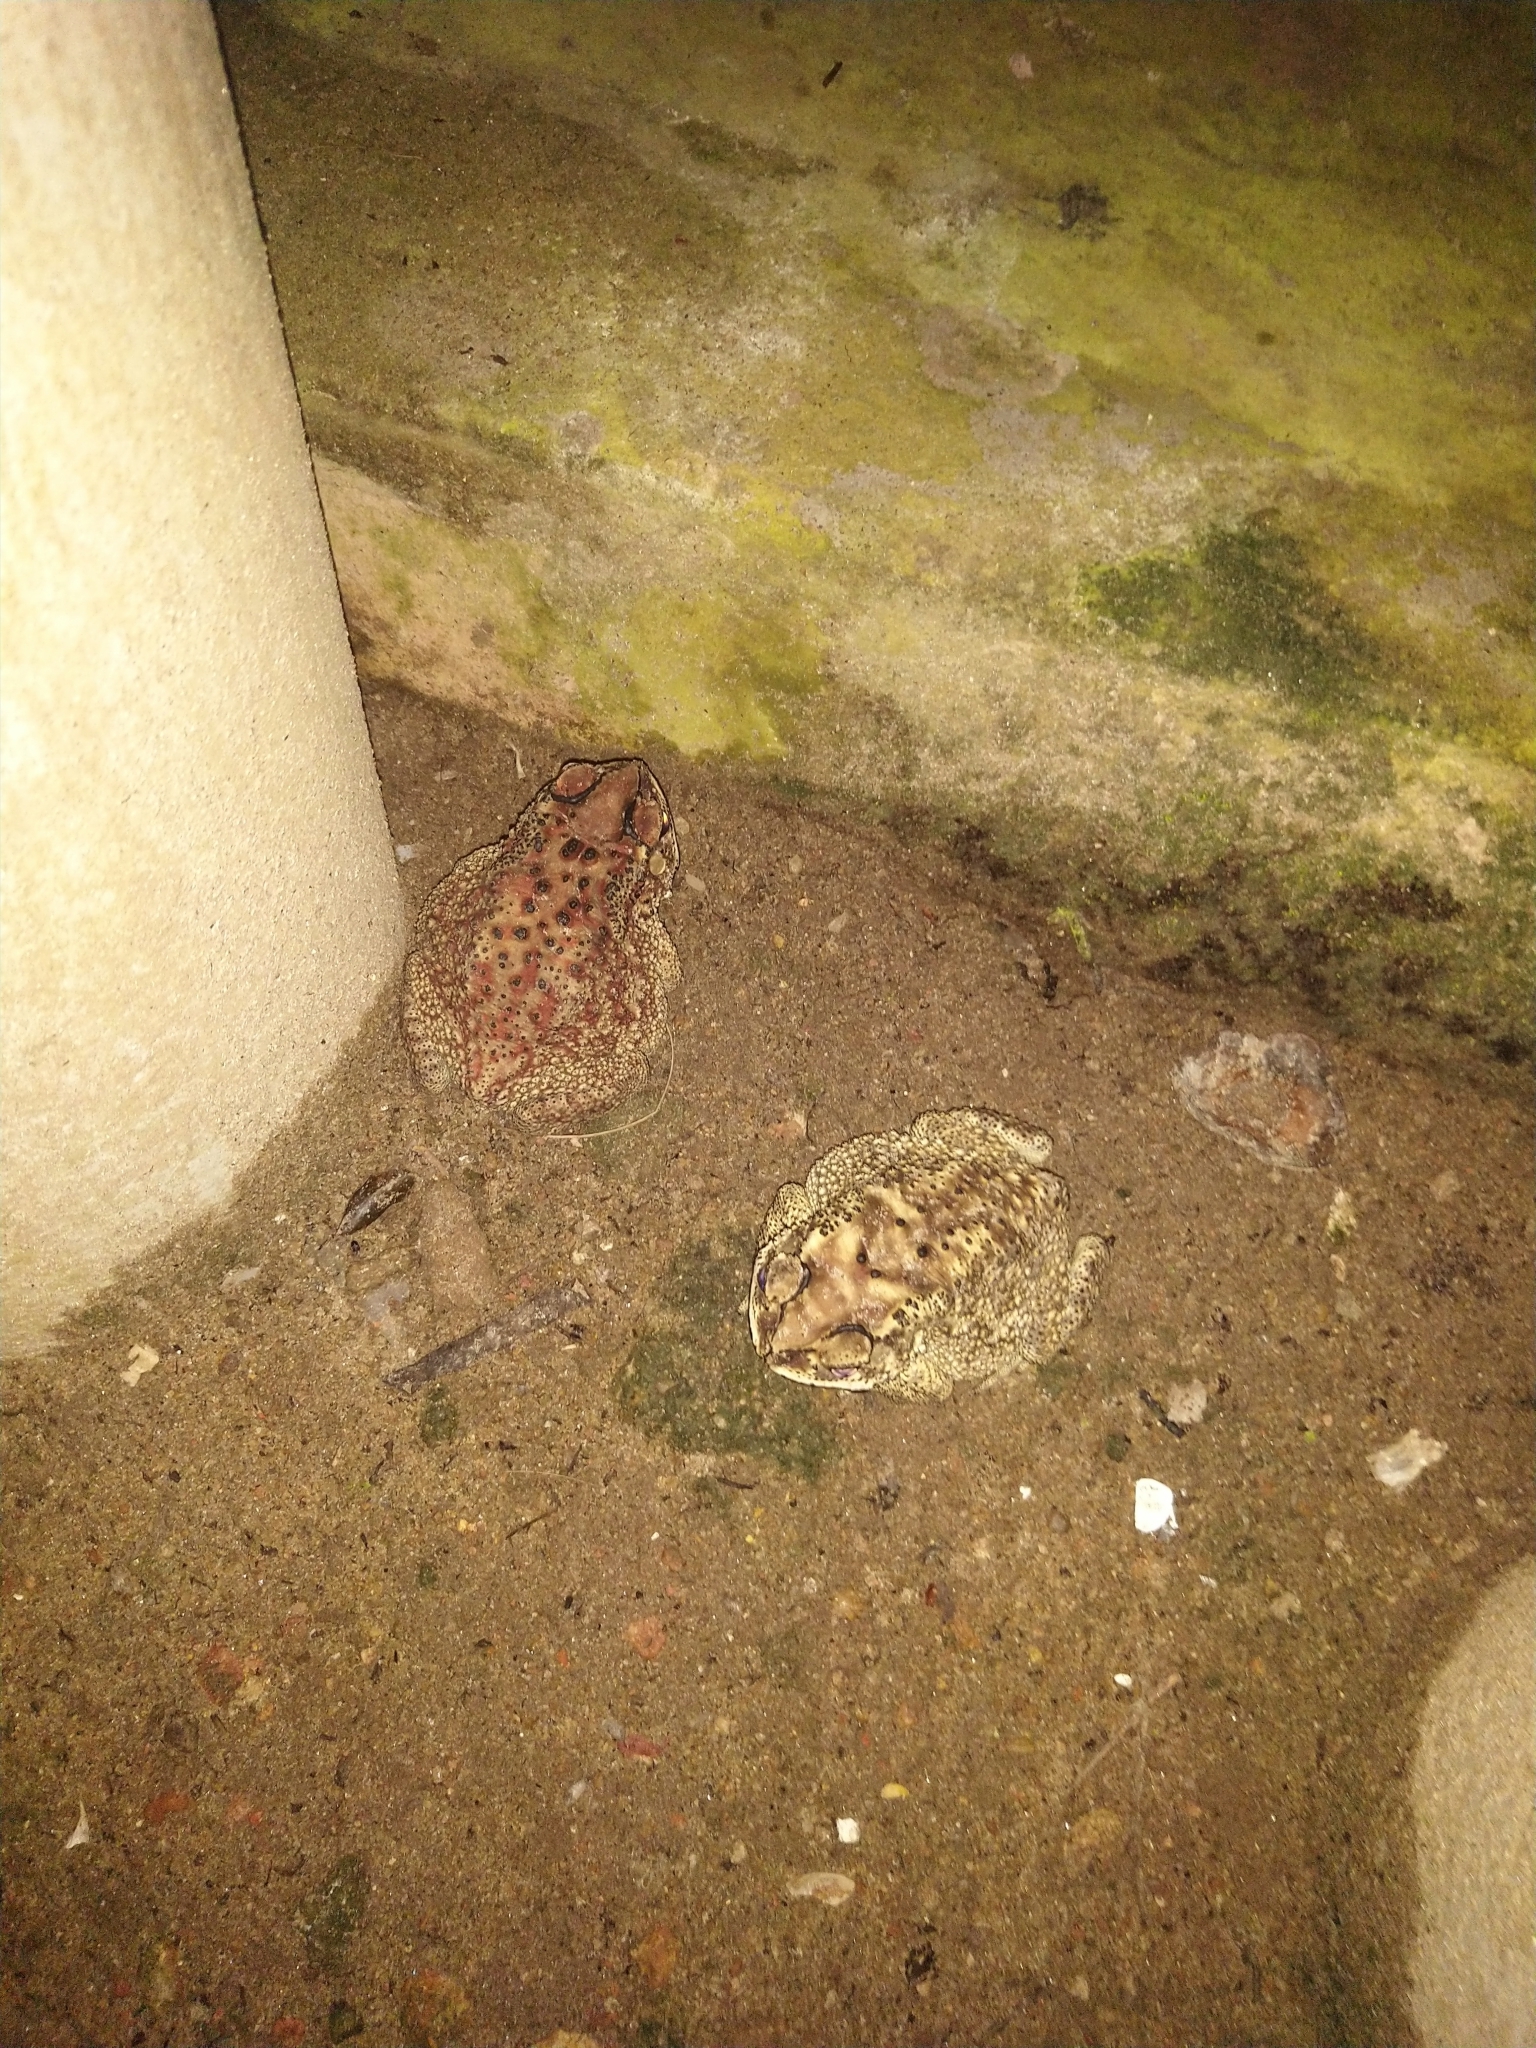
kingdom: Animalia
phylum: Chordata
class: Amphibia
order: Anura
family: Bufonidae
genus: Duttaphrynus
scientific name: Duttaphrynus melanostictus
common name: Common sunda toad
